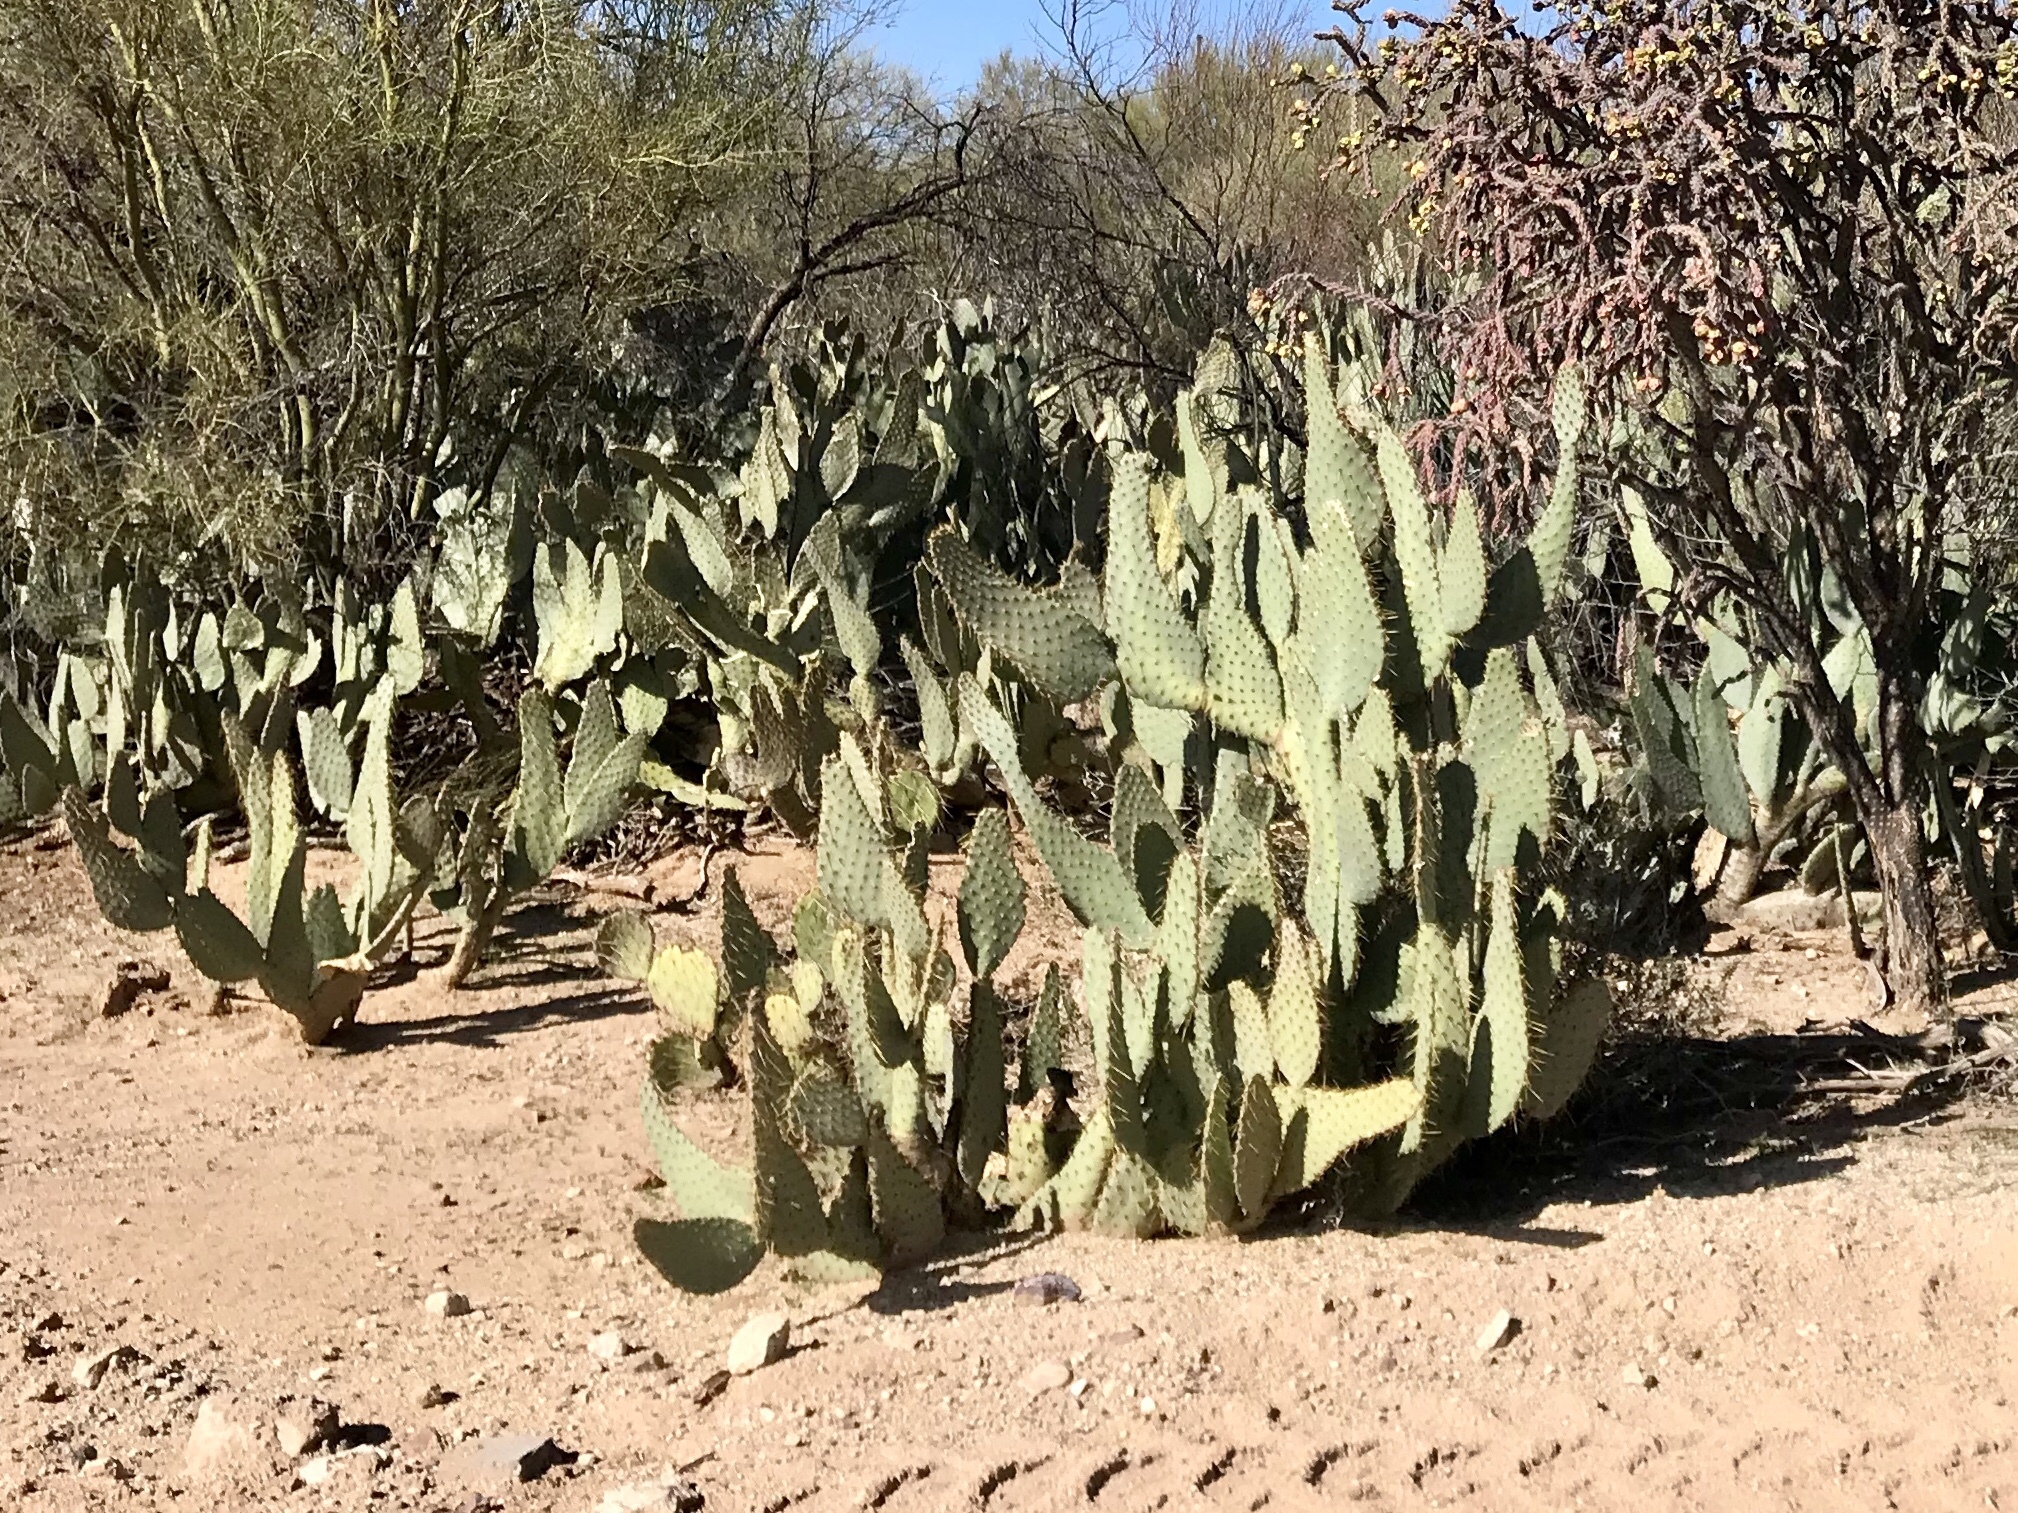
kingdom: Plantae
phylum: Tracheophyta
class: Magnoliopsida
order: Caryophyllales
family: Cactaceae
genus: Opuntia
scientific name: Opuntia engelmannii
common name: Cactus-apple
